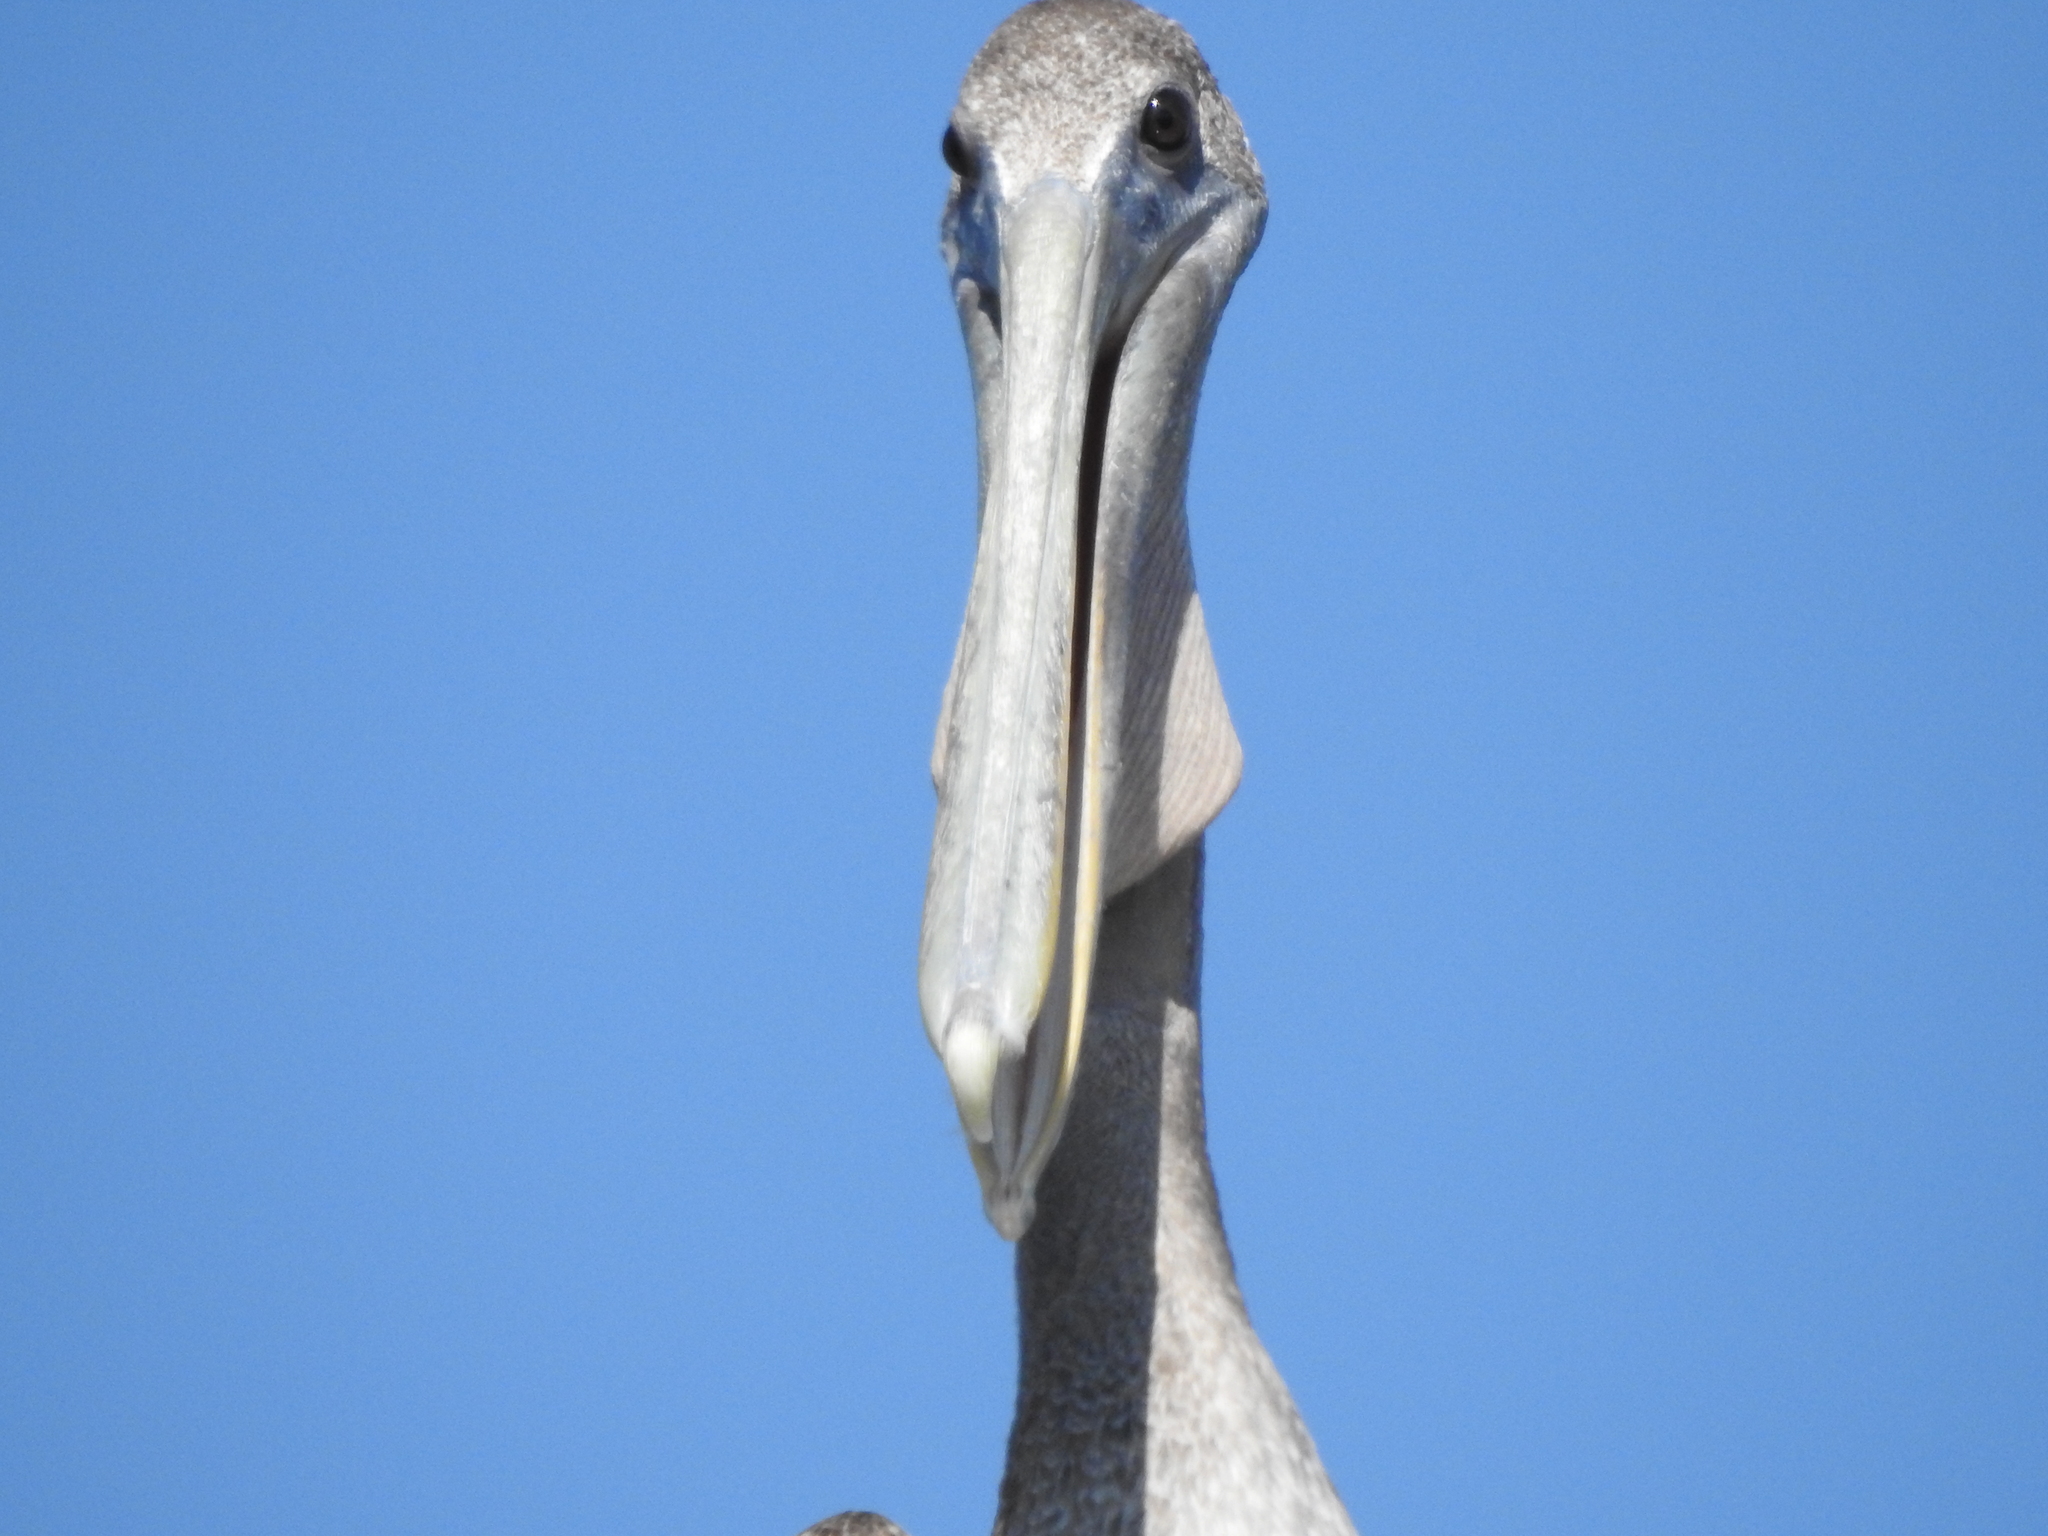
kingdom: Animalia
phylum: Chordata
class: Aves
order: Pelecaniformes
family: Pelecanidae
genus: Pelecanus
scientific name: Pelecanus occidentalis
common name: Brown pelican
